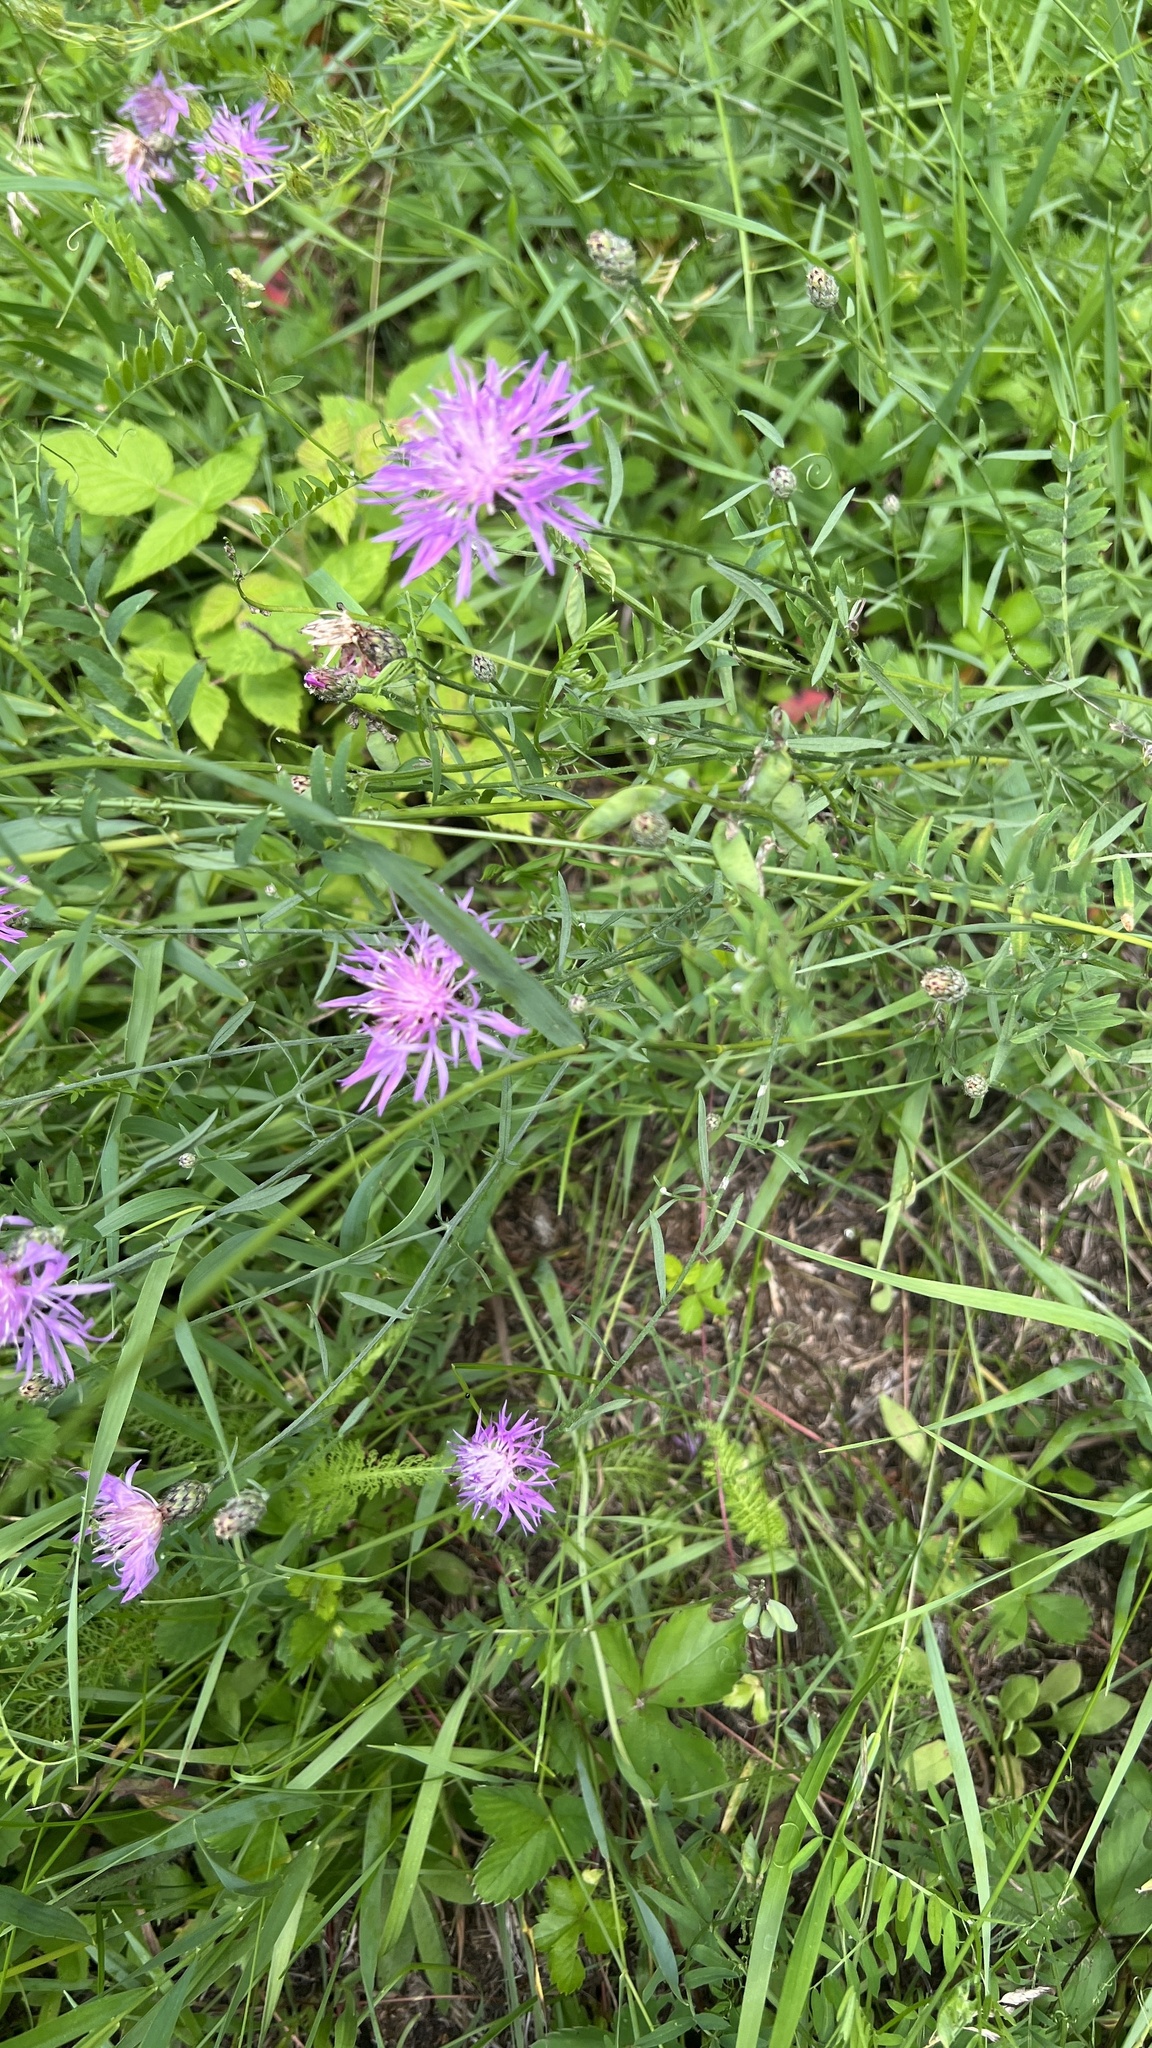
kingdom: Plantae
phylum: Tracheophyta
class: Magnoliopsida
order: Asterales
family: Asteraceae
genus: Centaurea
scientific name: Centaurea stoebe
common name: Spotted knapweed
